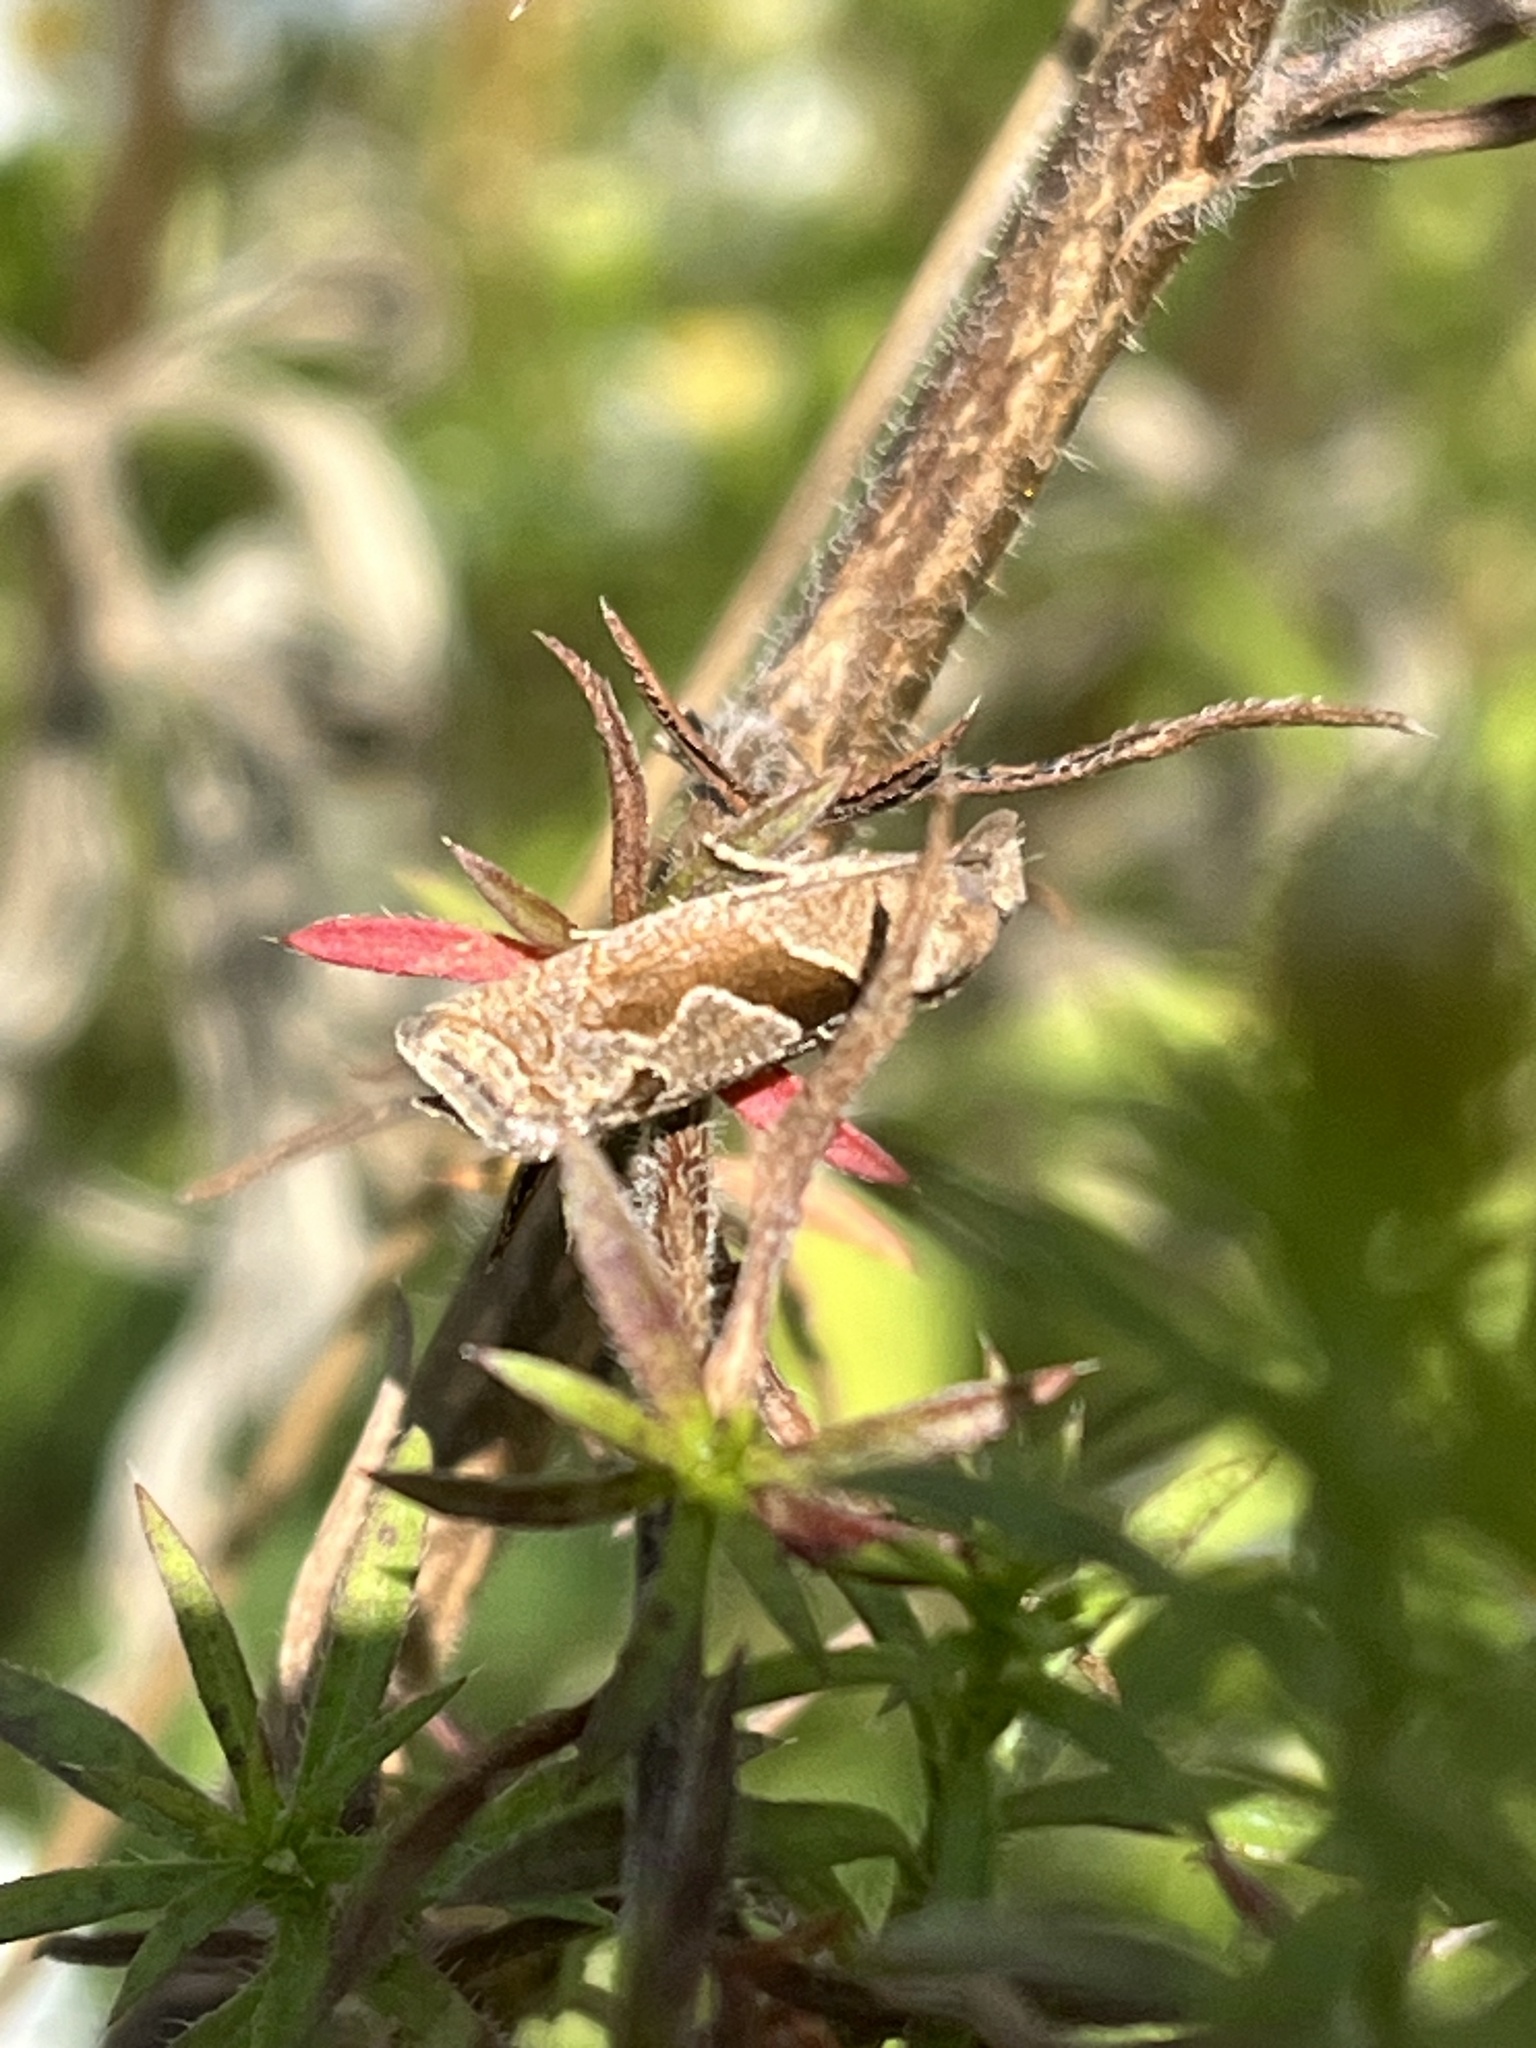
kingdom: Animalia
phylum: Arthropoda
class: Insecta
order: Lepidoptera
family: Tortricidae
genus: Pelochrista
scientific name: Pelochrista similiana
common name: Similar eucosma
